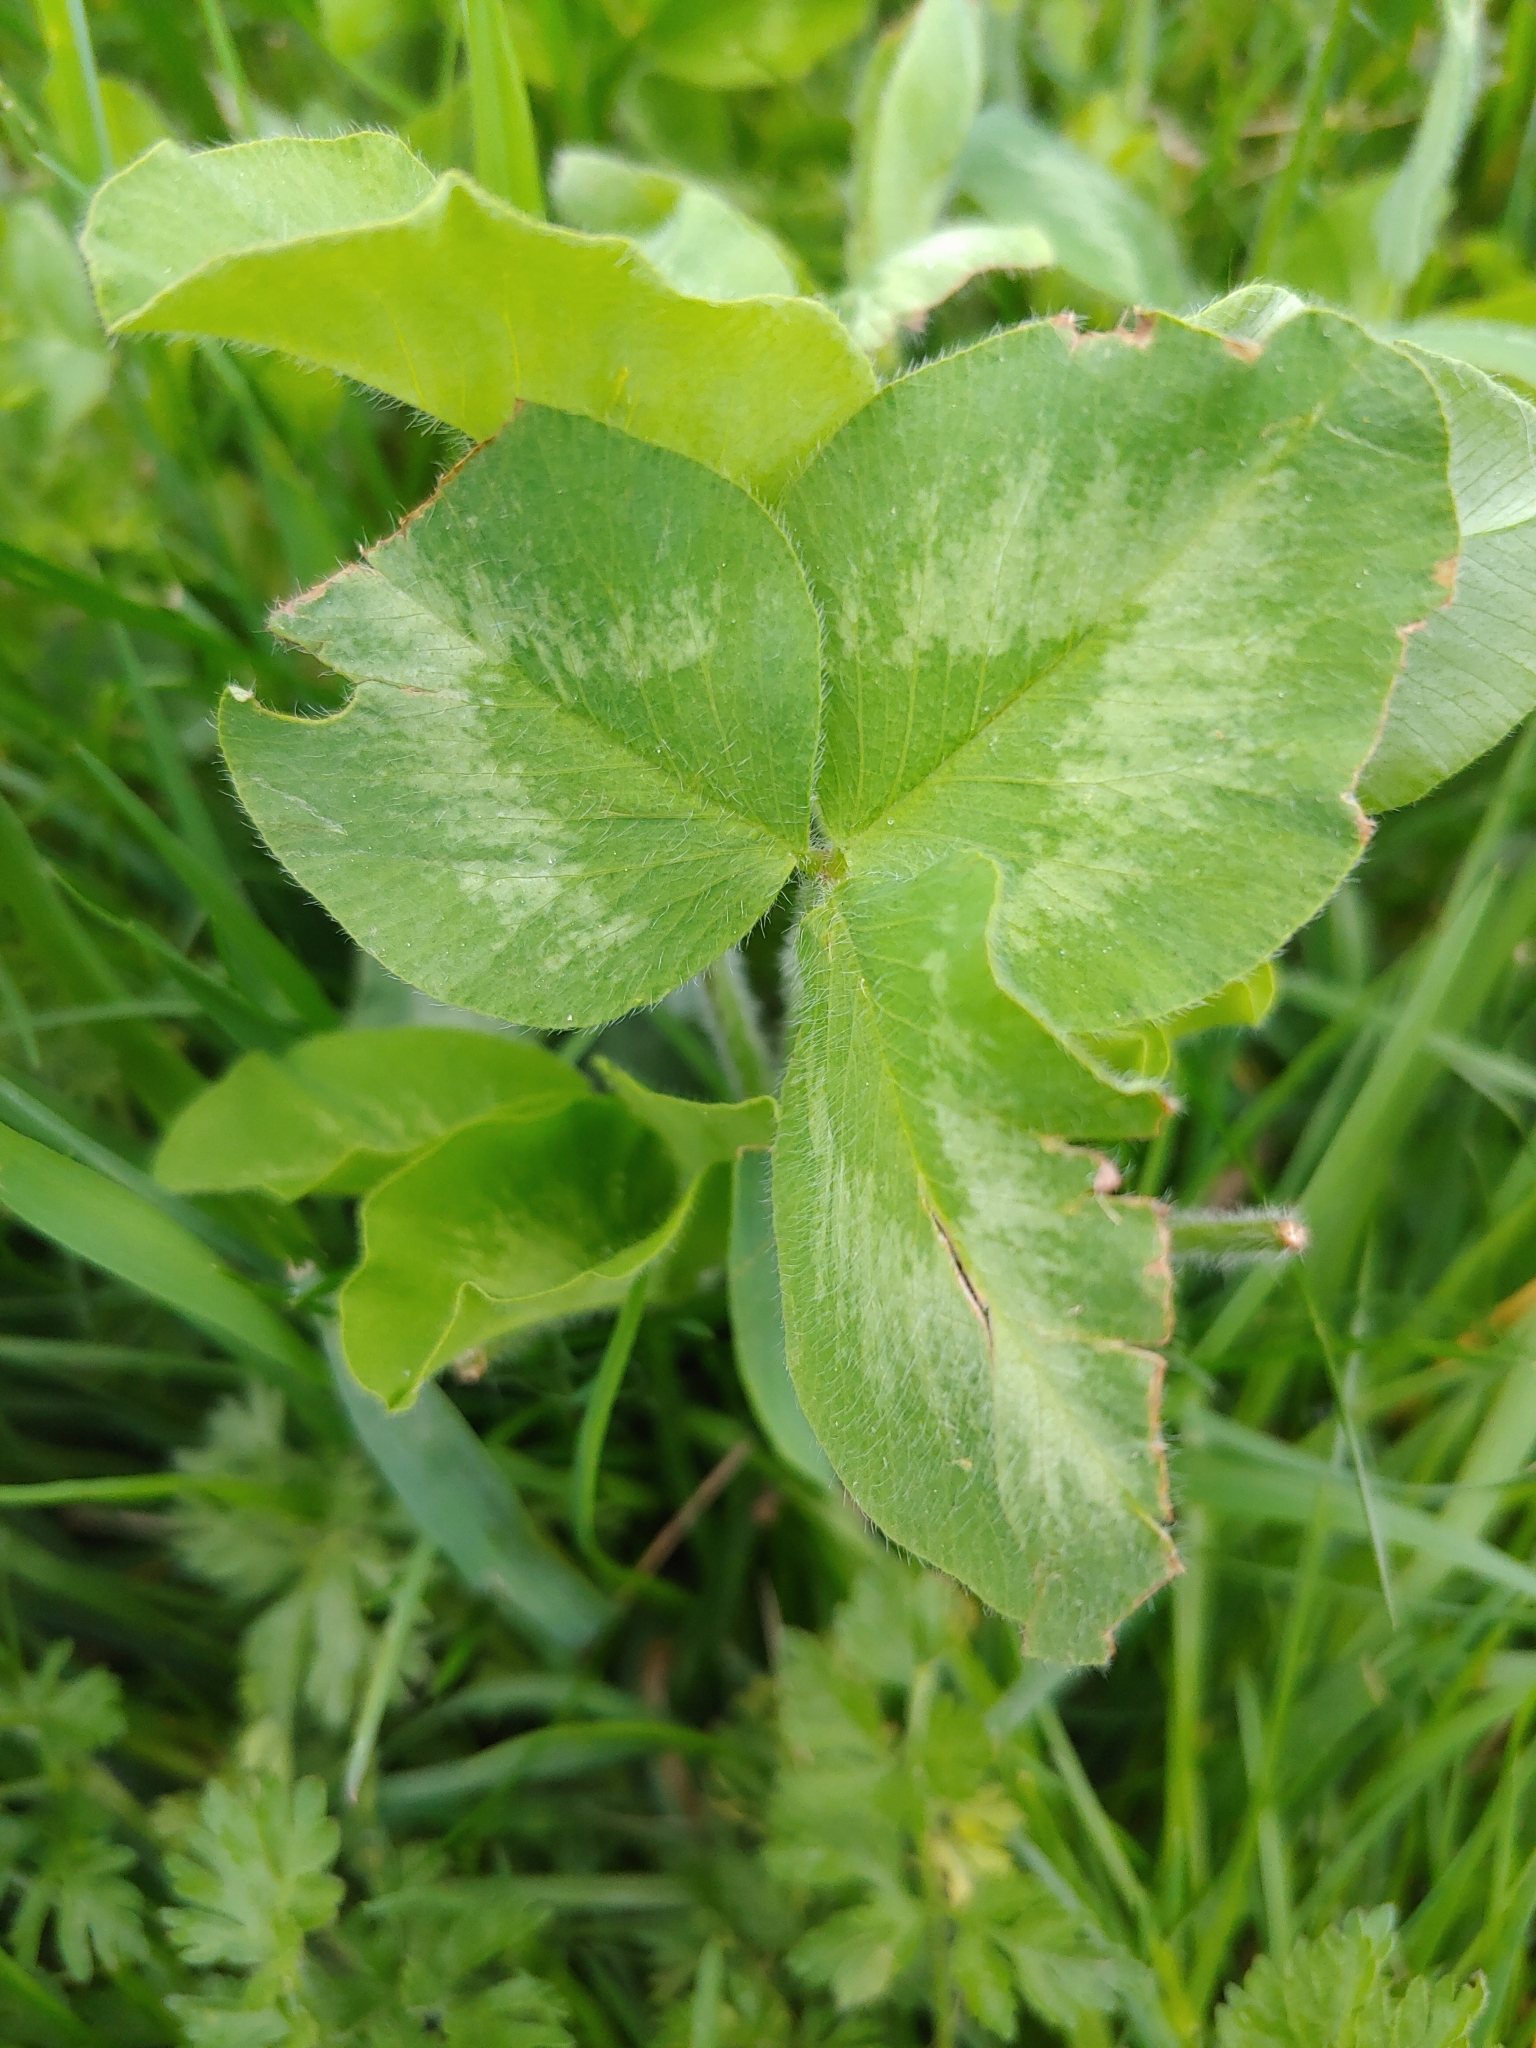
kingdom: Plantae
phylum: Tracheophyta
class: Magnoliopsida
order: Fabales
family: Fabaceae
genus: Trifolium
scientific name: Trifolium pratense
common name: Red clover
